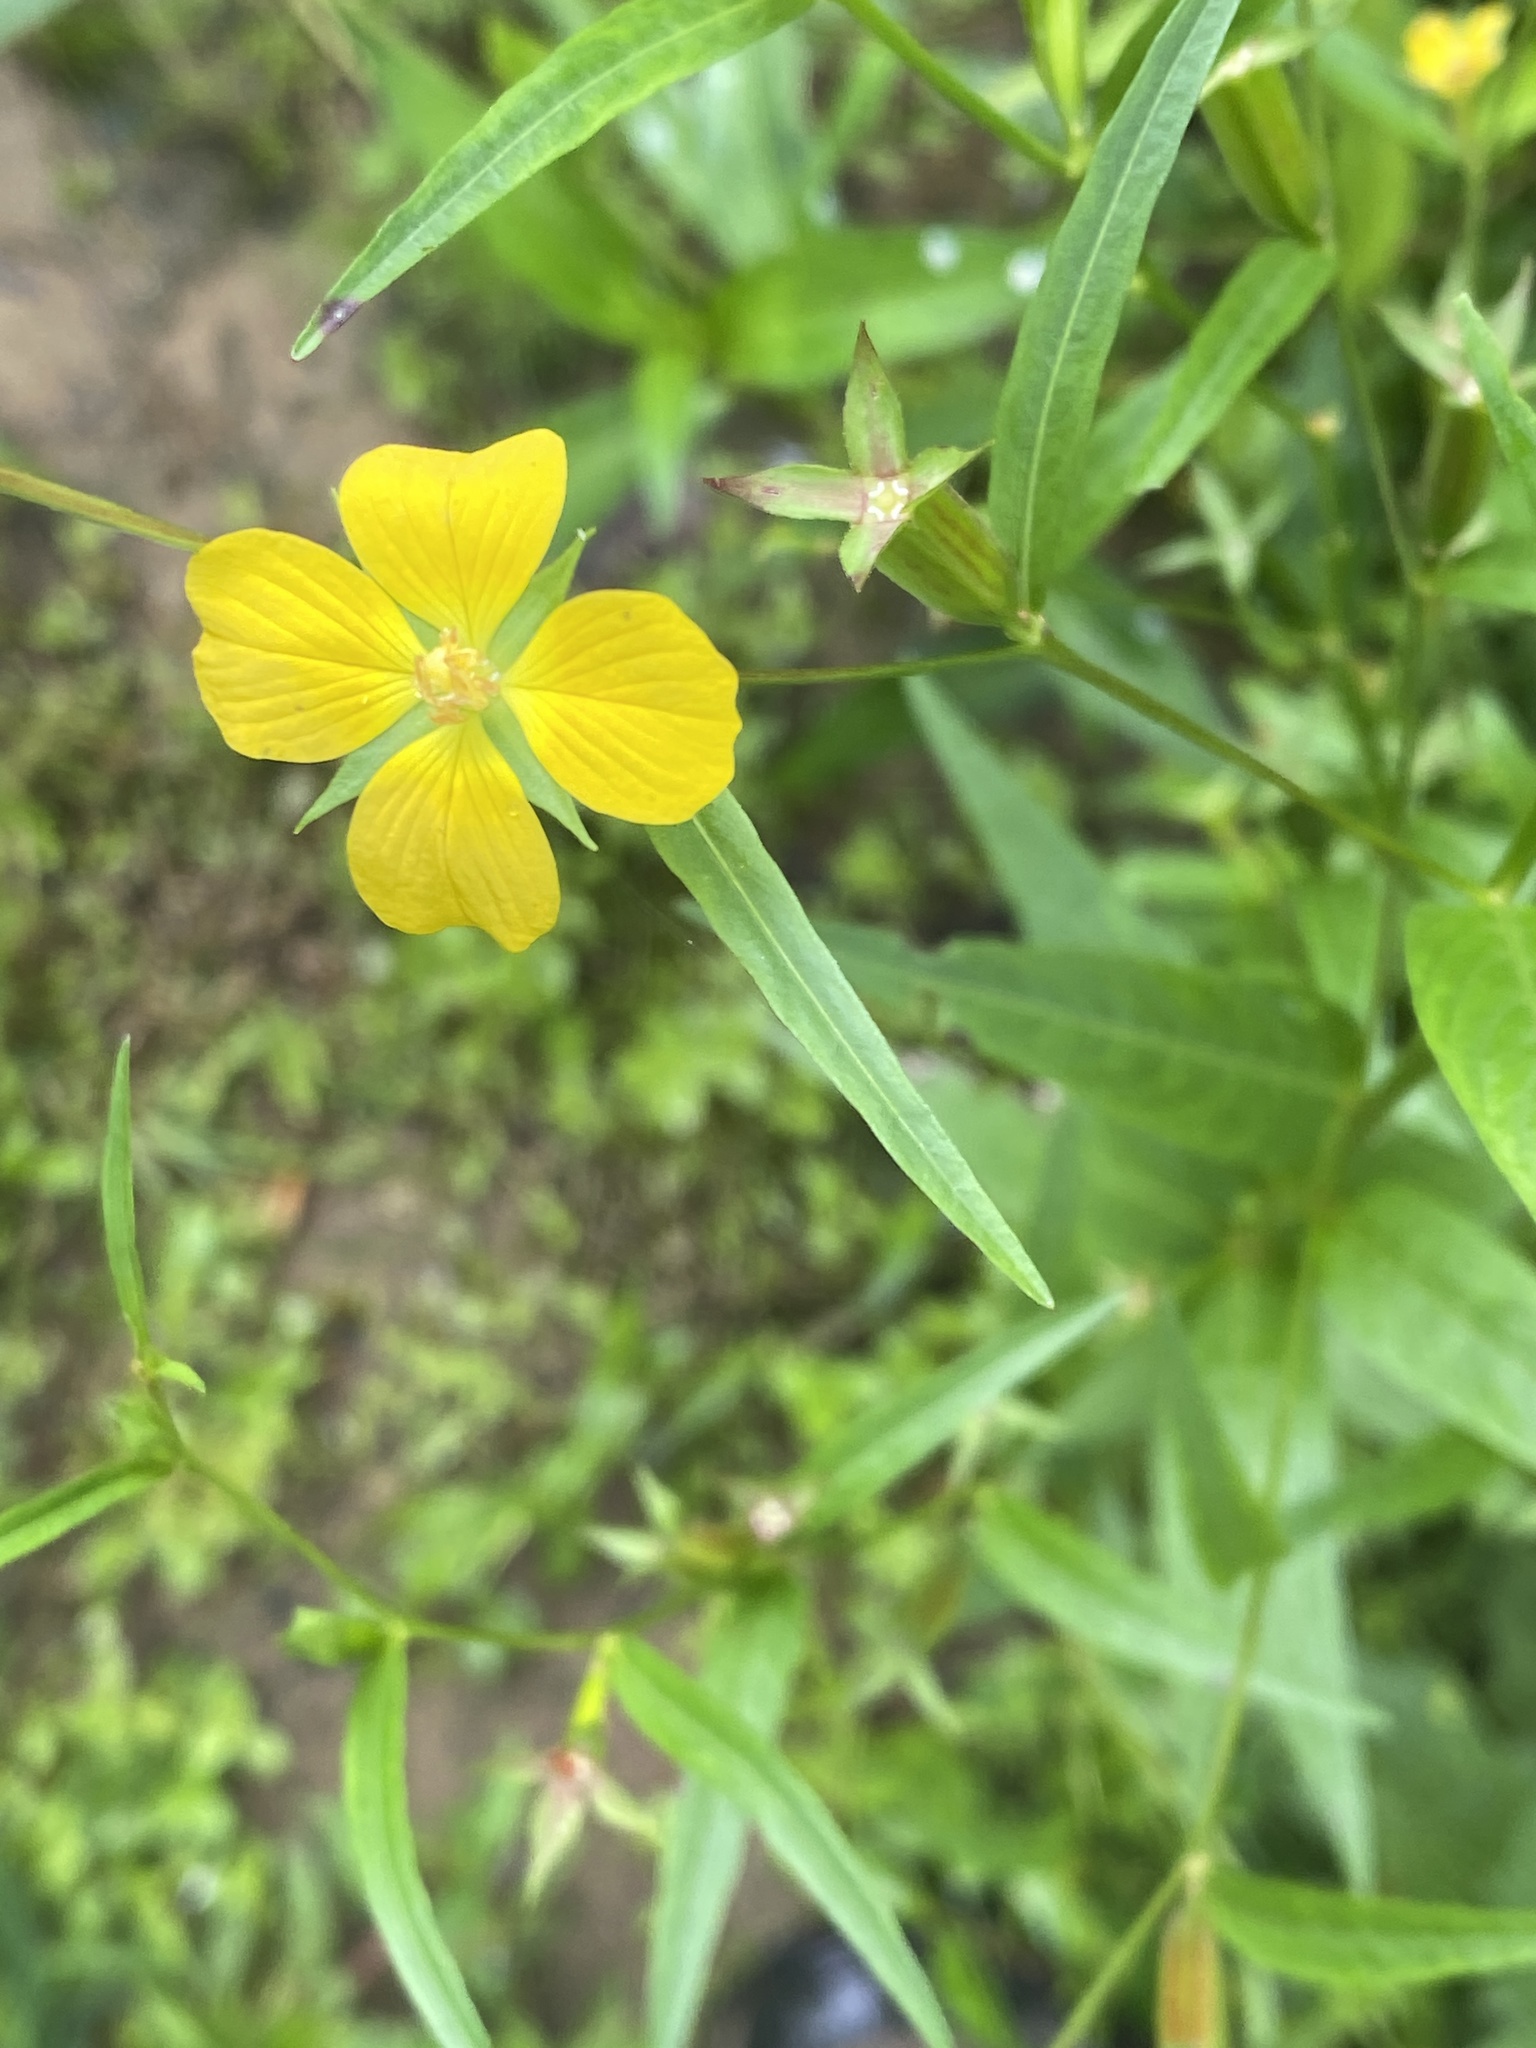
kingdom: Plantae
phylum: Tracheophyta
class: Magnoliopsida
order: Myrtales
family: Onagraceae
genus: Ludwigia
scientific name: Ludwigia decurrens
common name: Winged water-primrose
